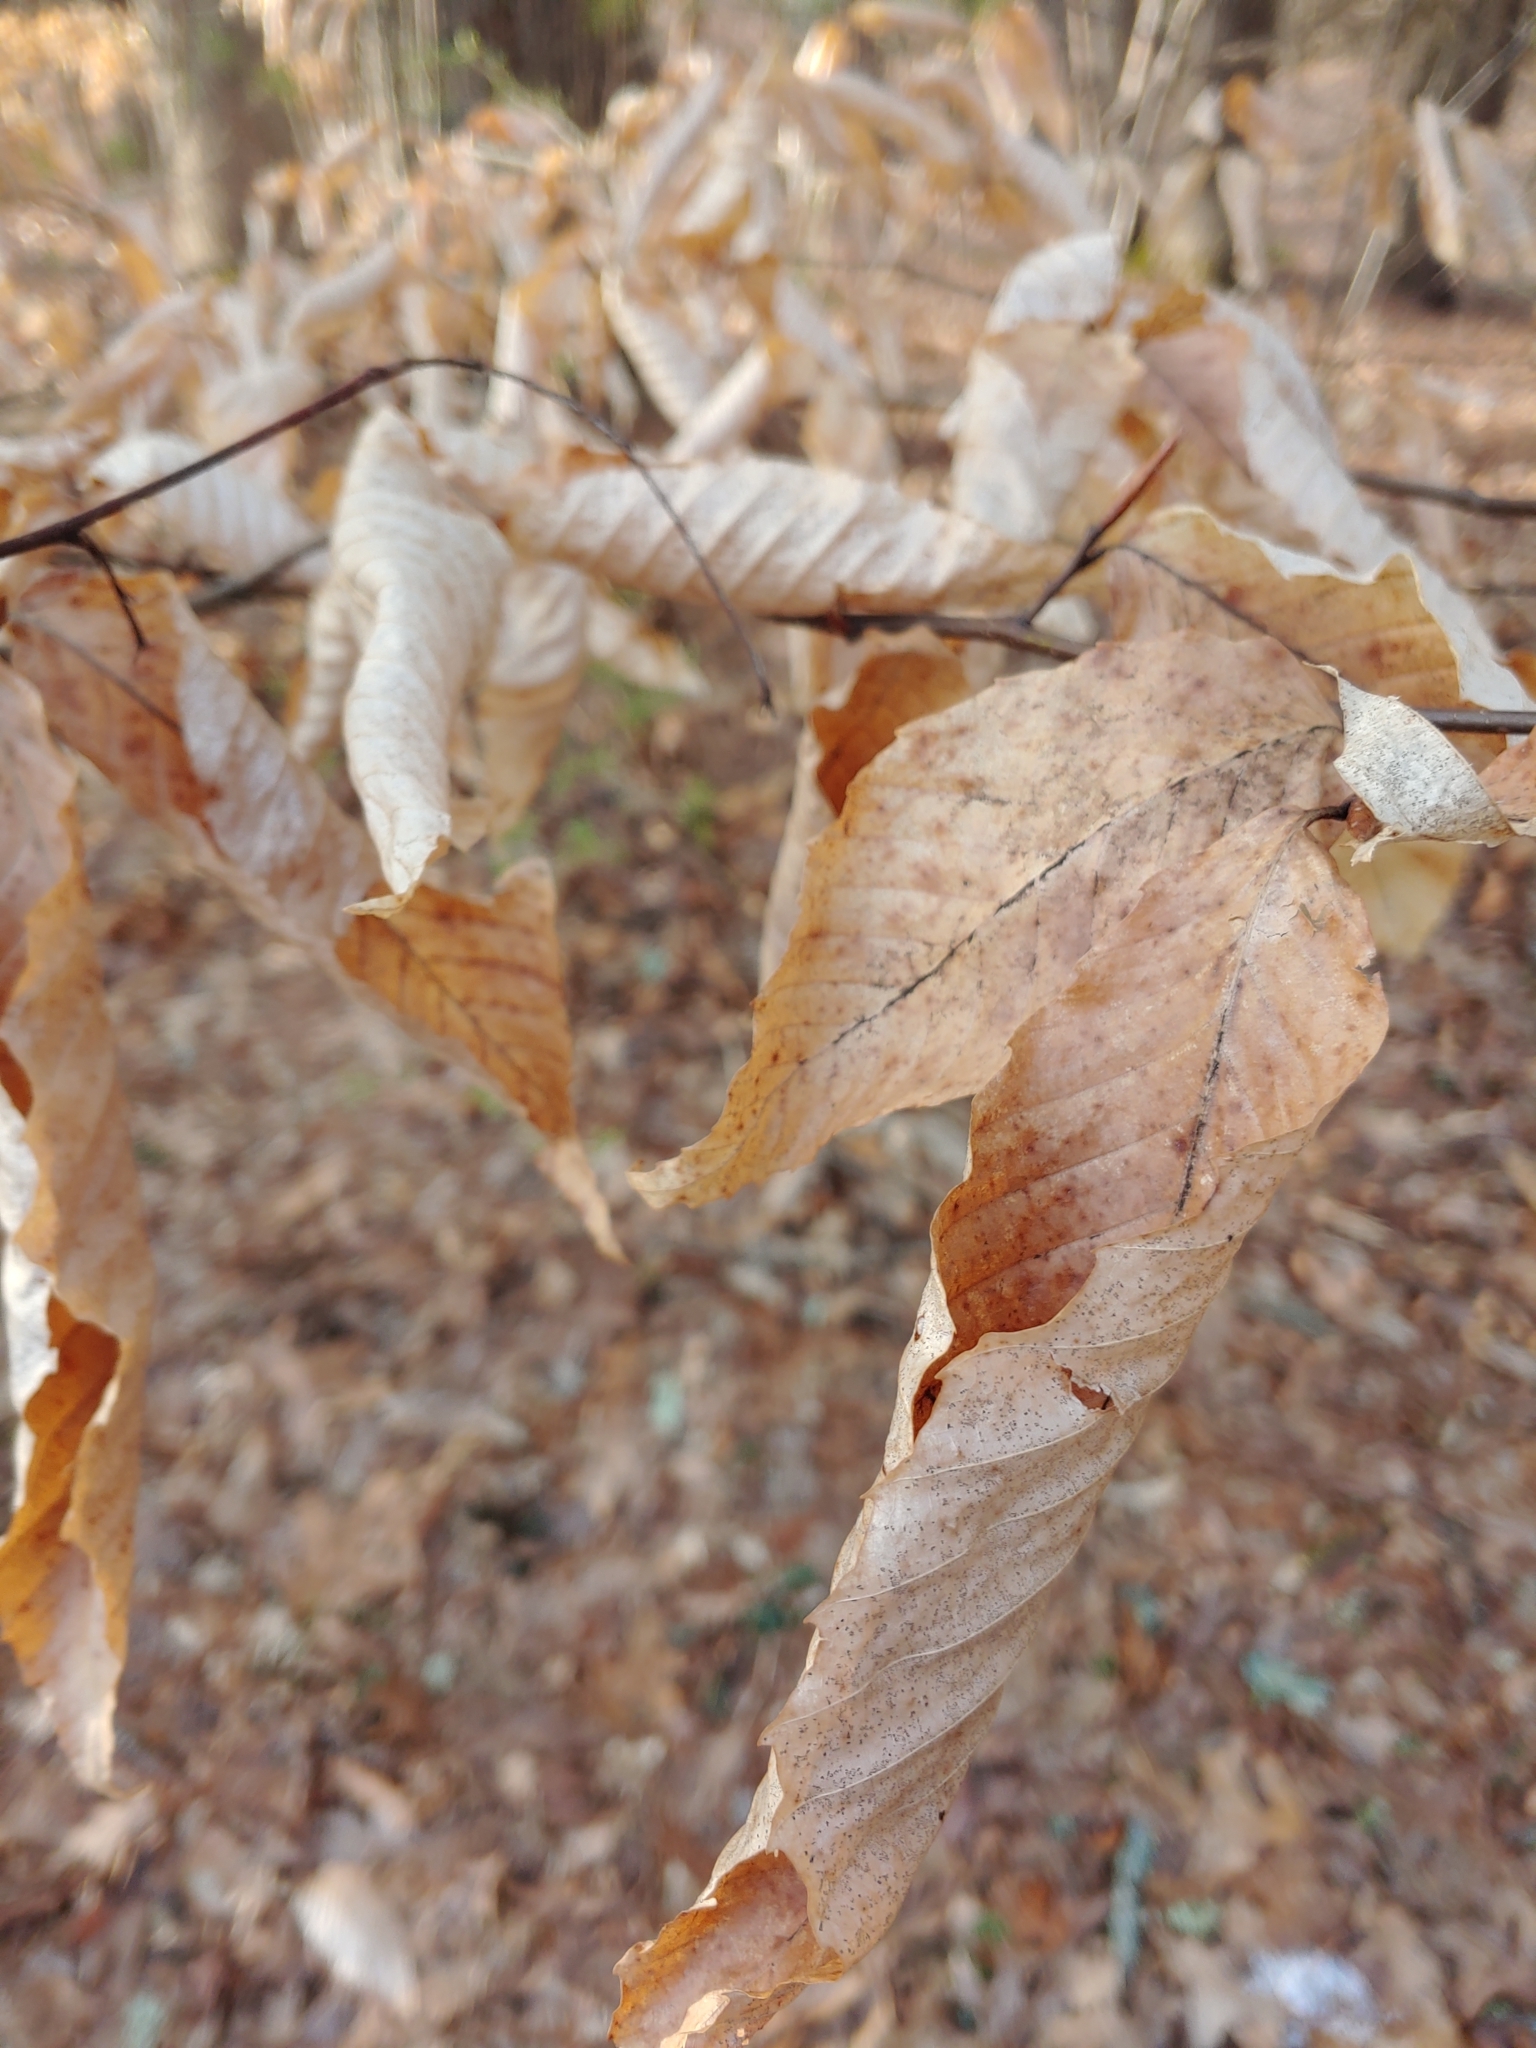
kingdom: Plantae
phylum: Tracheophyta
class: Magnoliopsida
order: Fagales
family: Fagaceae
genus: Fagus
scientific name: Fagus grandifolia
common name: American beech
